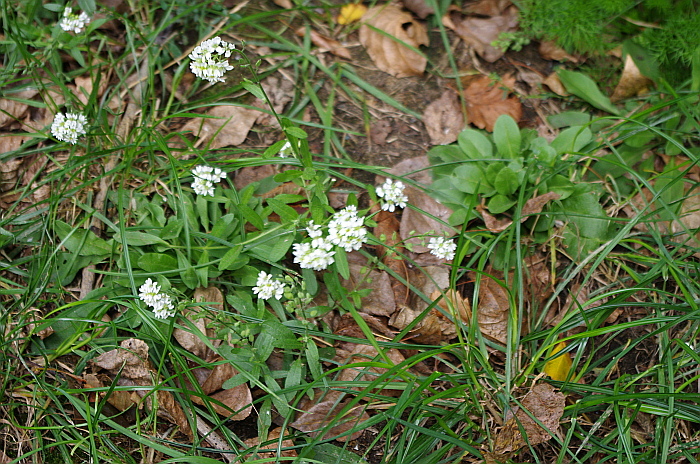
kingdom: Plantae
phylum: Tracheophyta
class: Magnoliopsida
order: Brassicales
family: Brassicaceae
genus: Berteroa
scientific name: Berteroa incana
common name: Hoary alison
